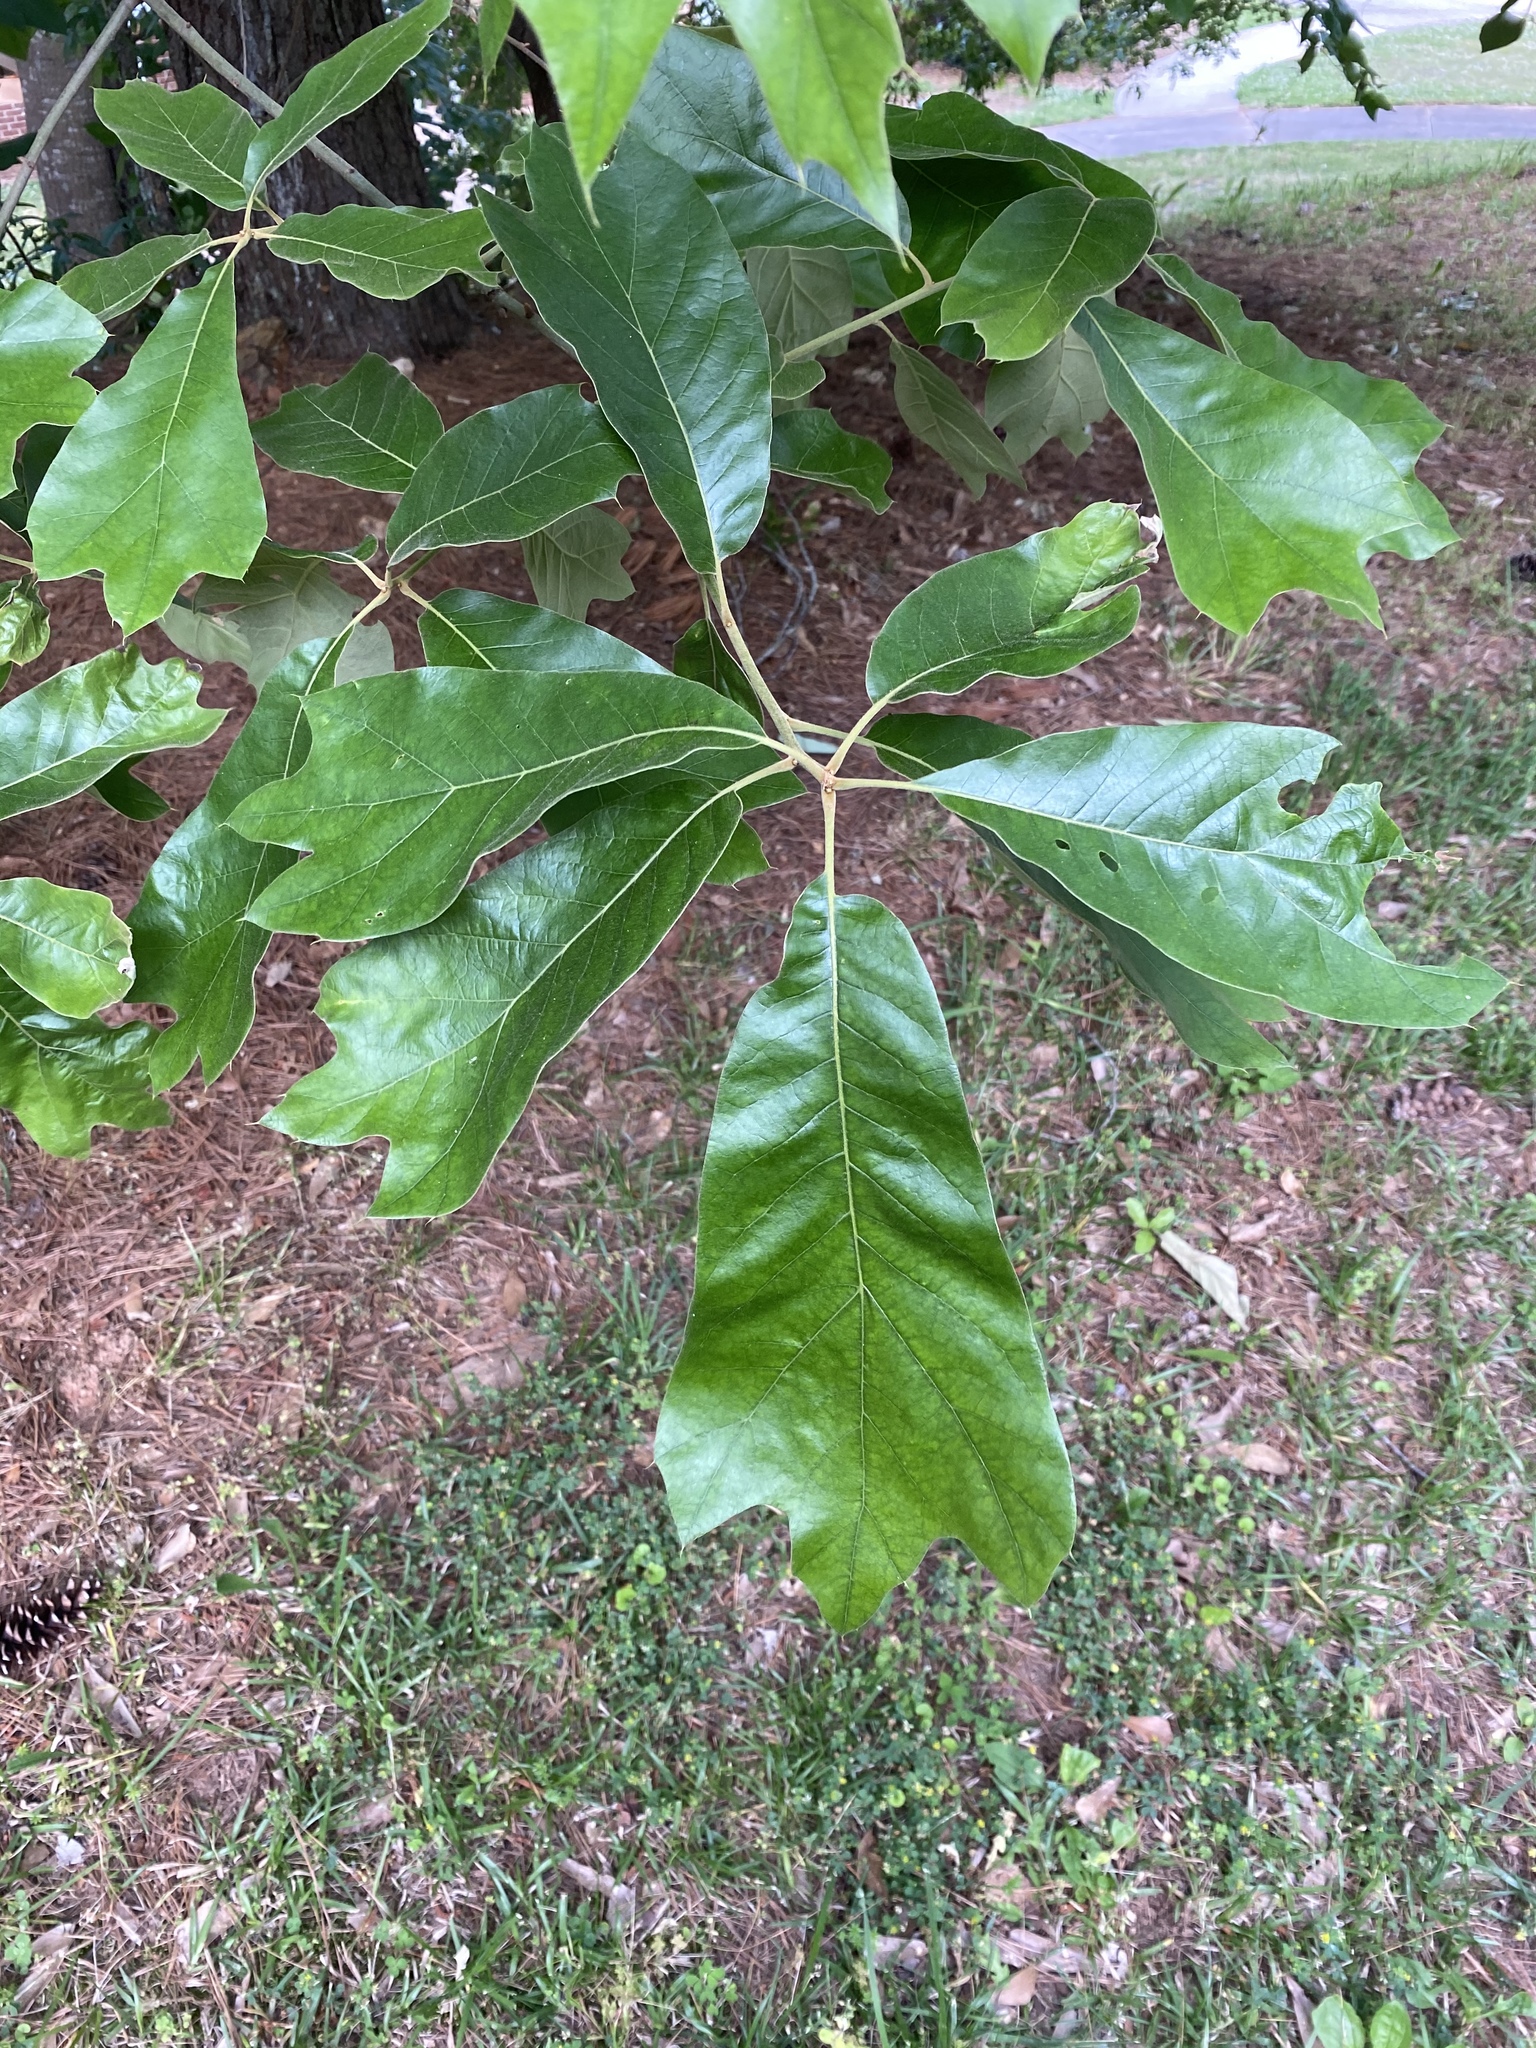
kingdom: Plantae
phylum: Tracheophyta
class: Magnoliopsida
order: Fagales
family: Fagaceae
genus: Quercus
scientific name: Quercus falcata
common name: Southern red oak
